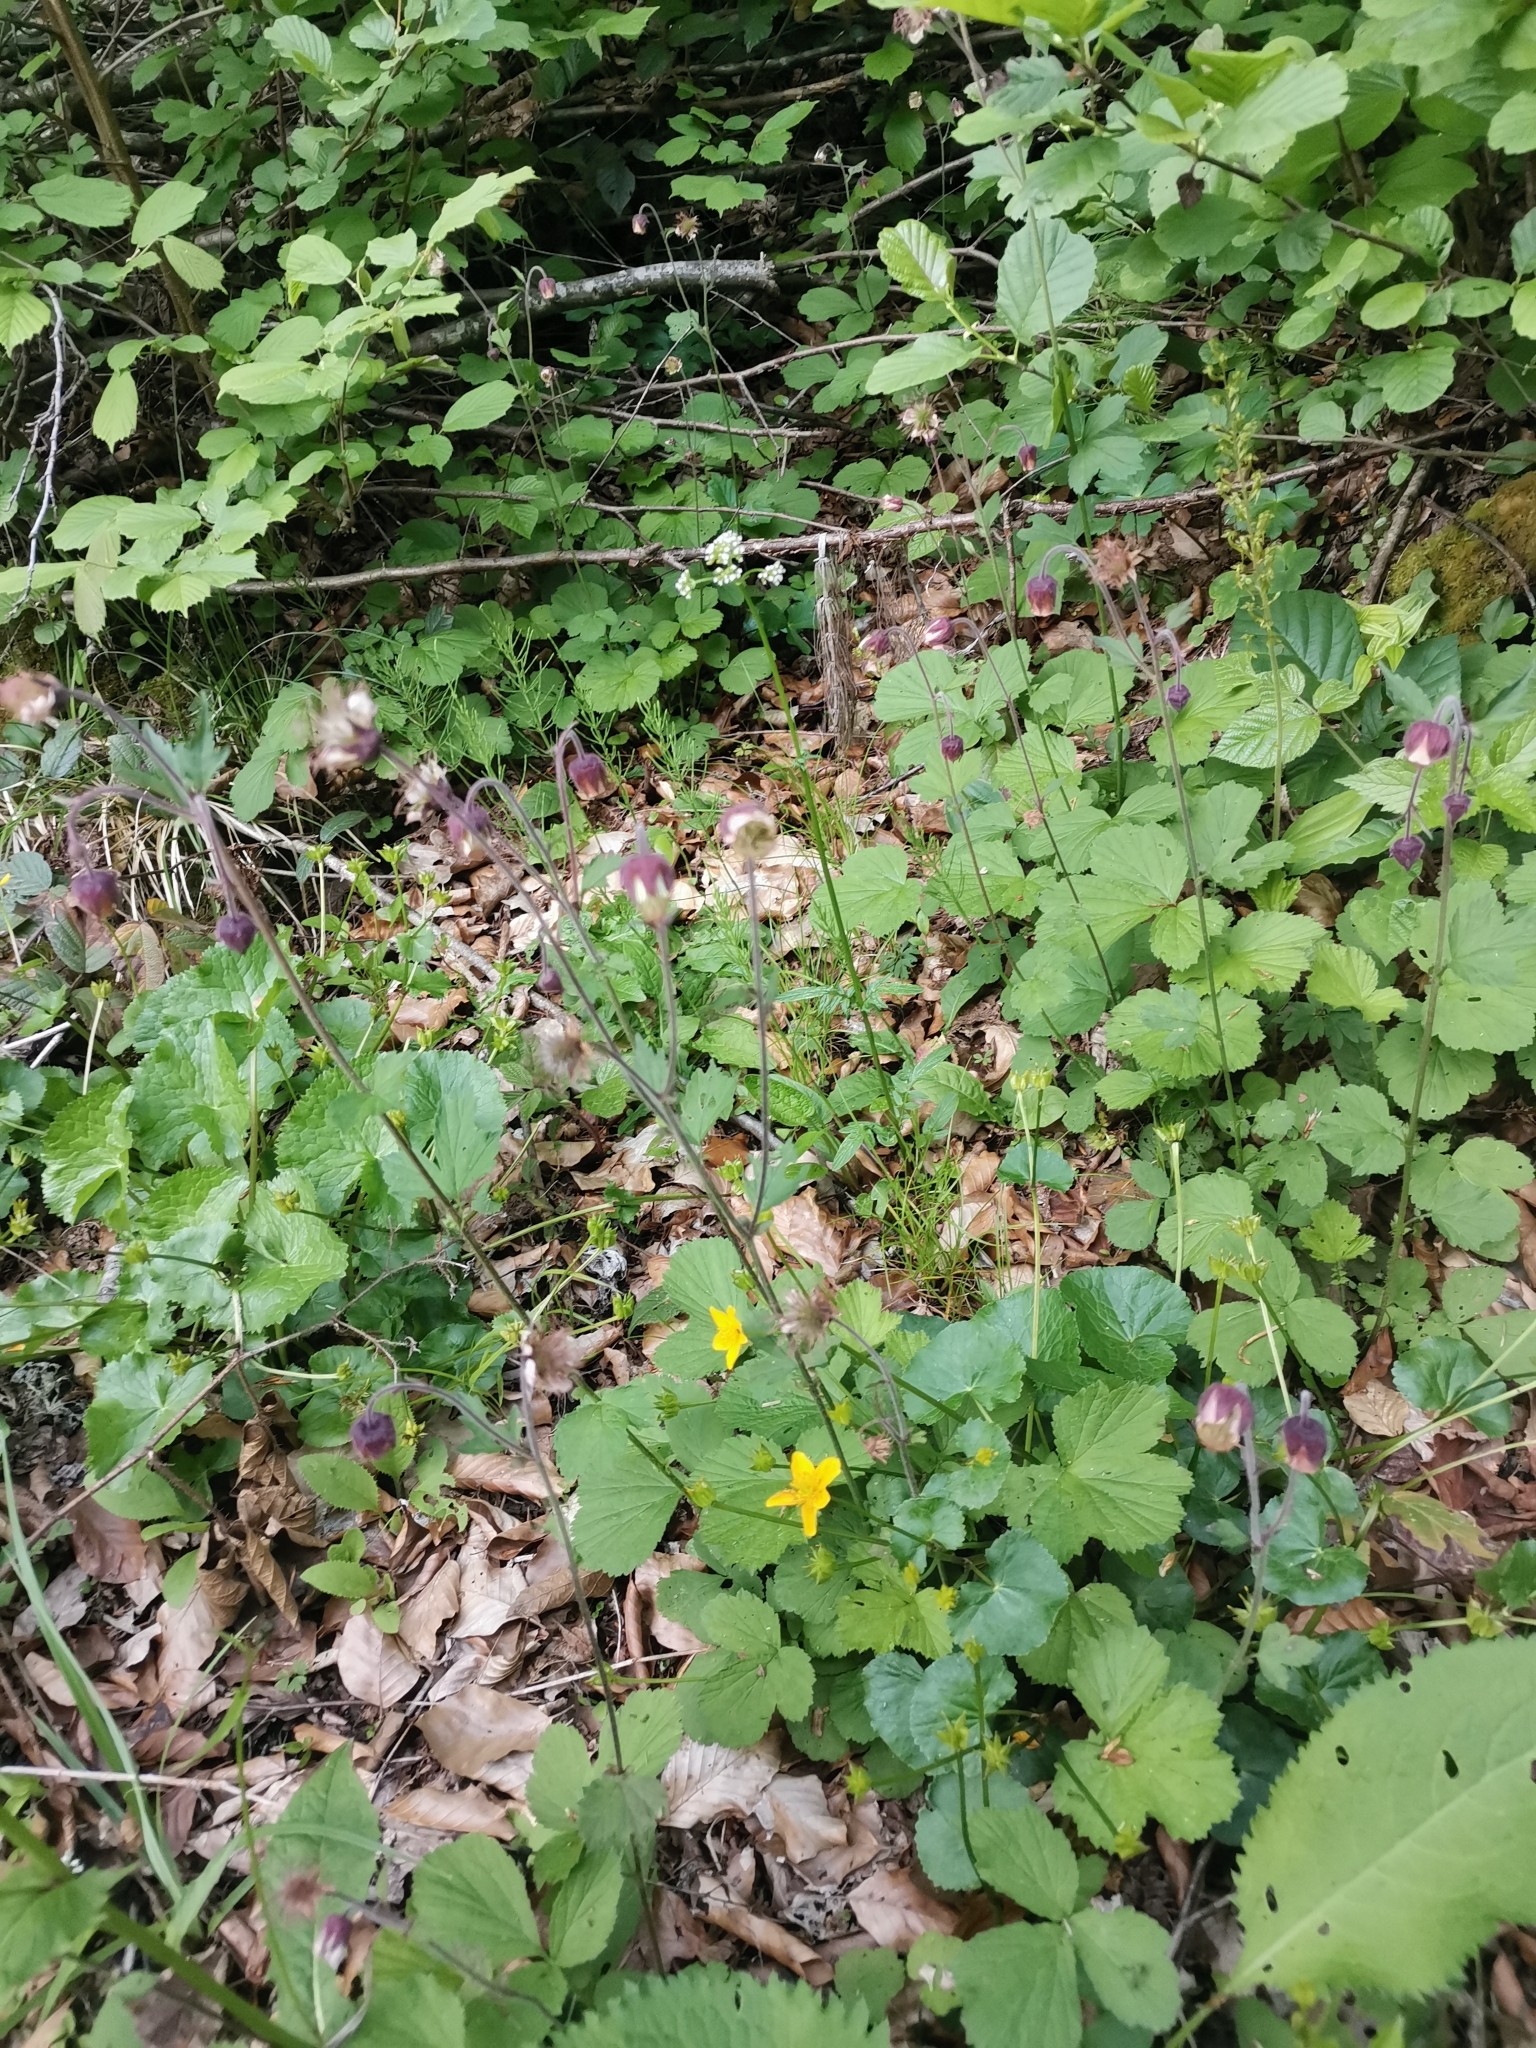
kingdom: Plantae
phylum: Tracheophyta
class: Magnoliopsida
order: Rosales
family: Rosaceae
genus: Geum
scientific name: Geum rivale
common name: Water avens
